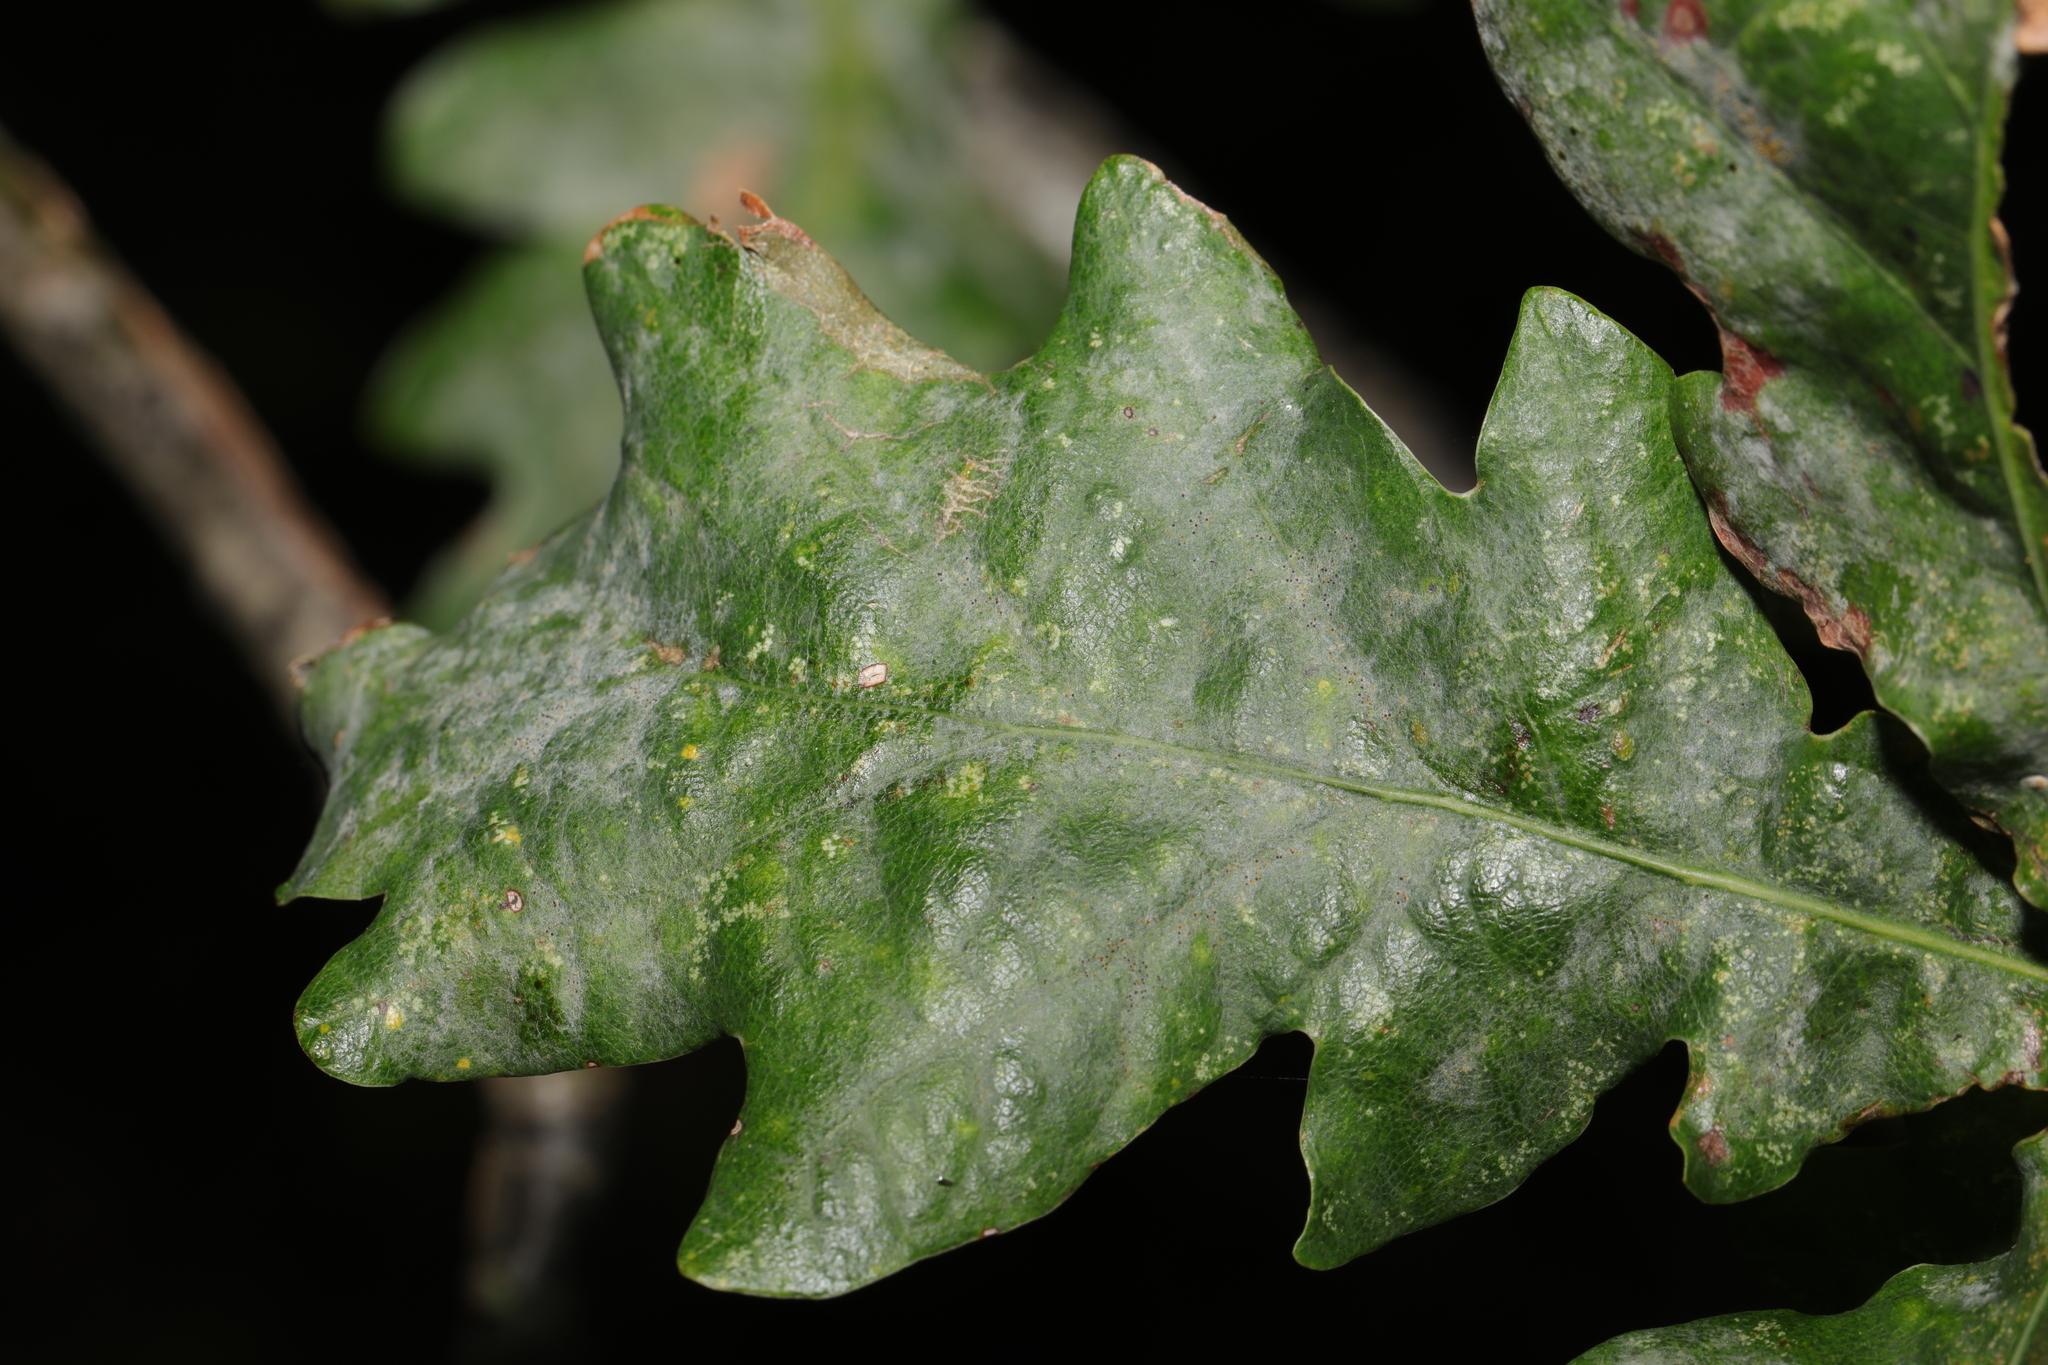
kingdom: Fungi
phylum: Ascomycota
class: Leotiomycetes
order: Helotiales
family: Erysiphaceae
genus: Erysiphe
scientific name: Erysiphe alphitoides
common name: Oak mildew
